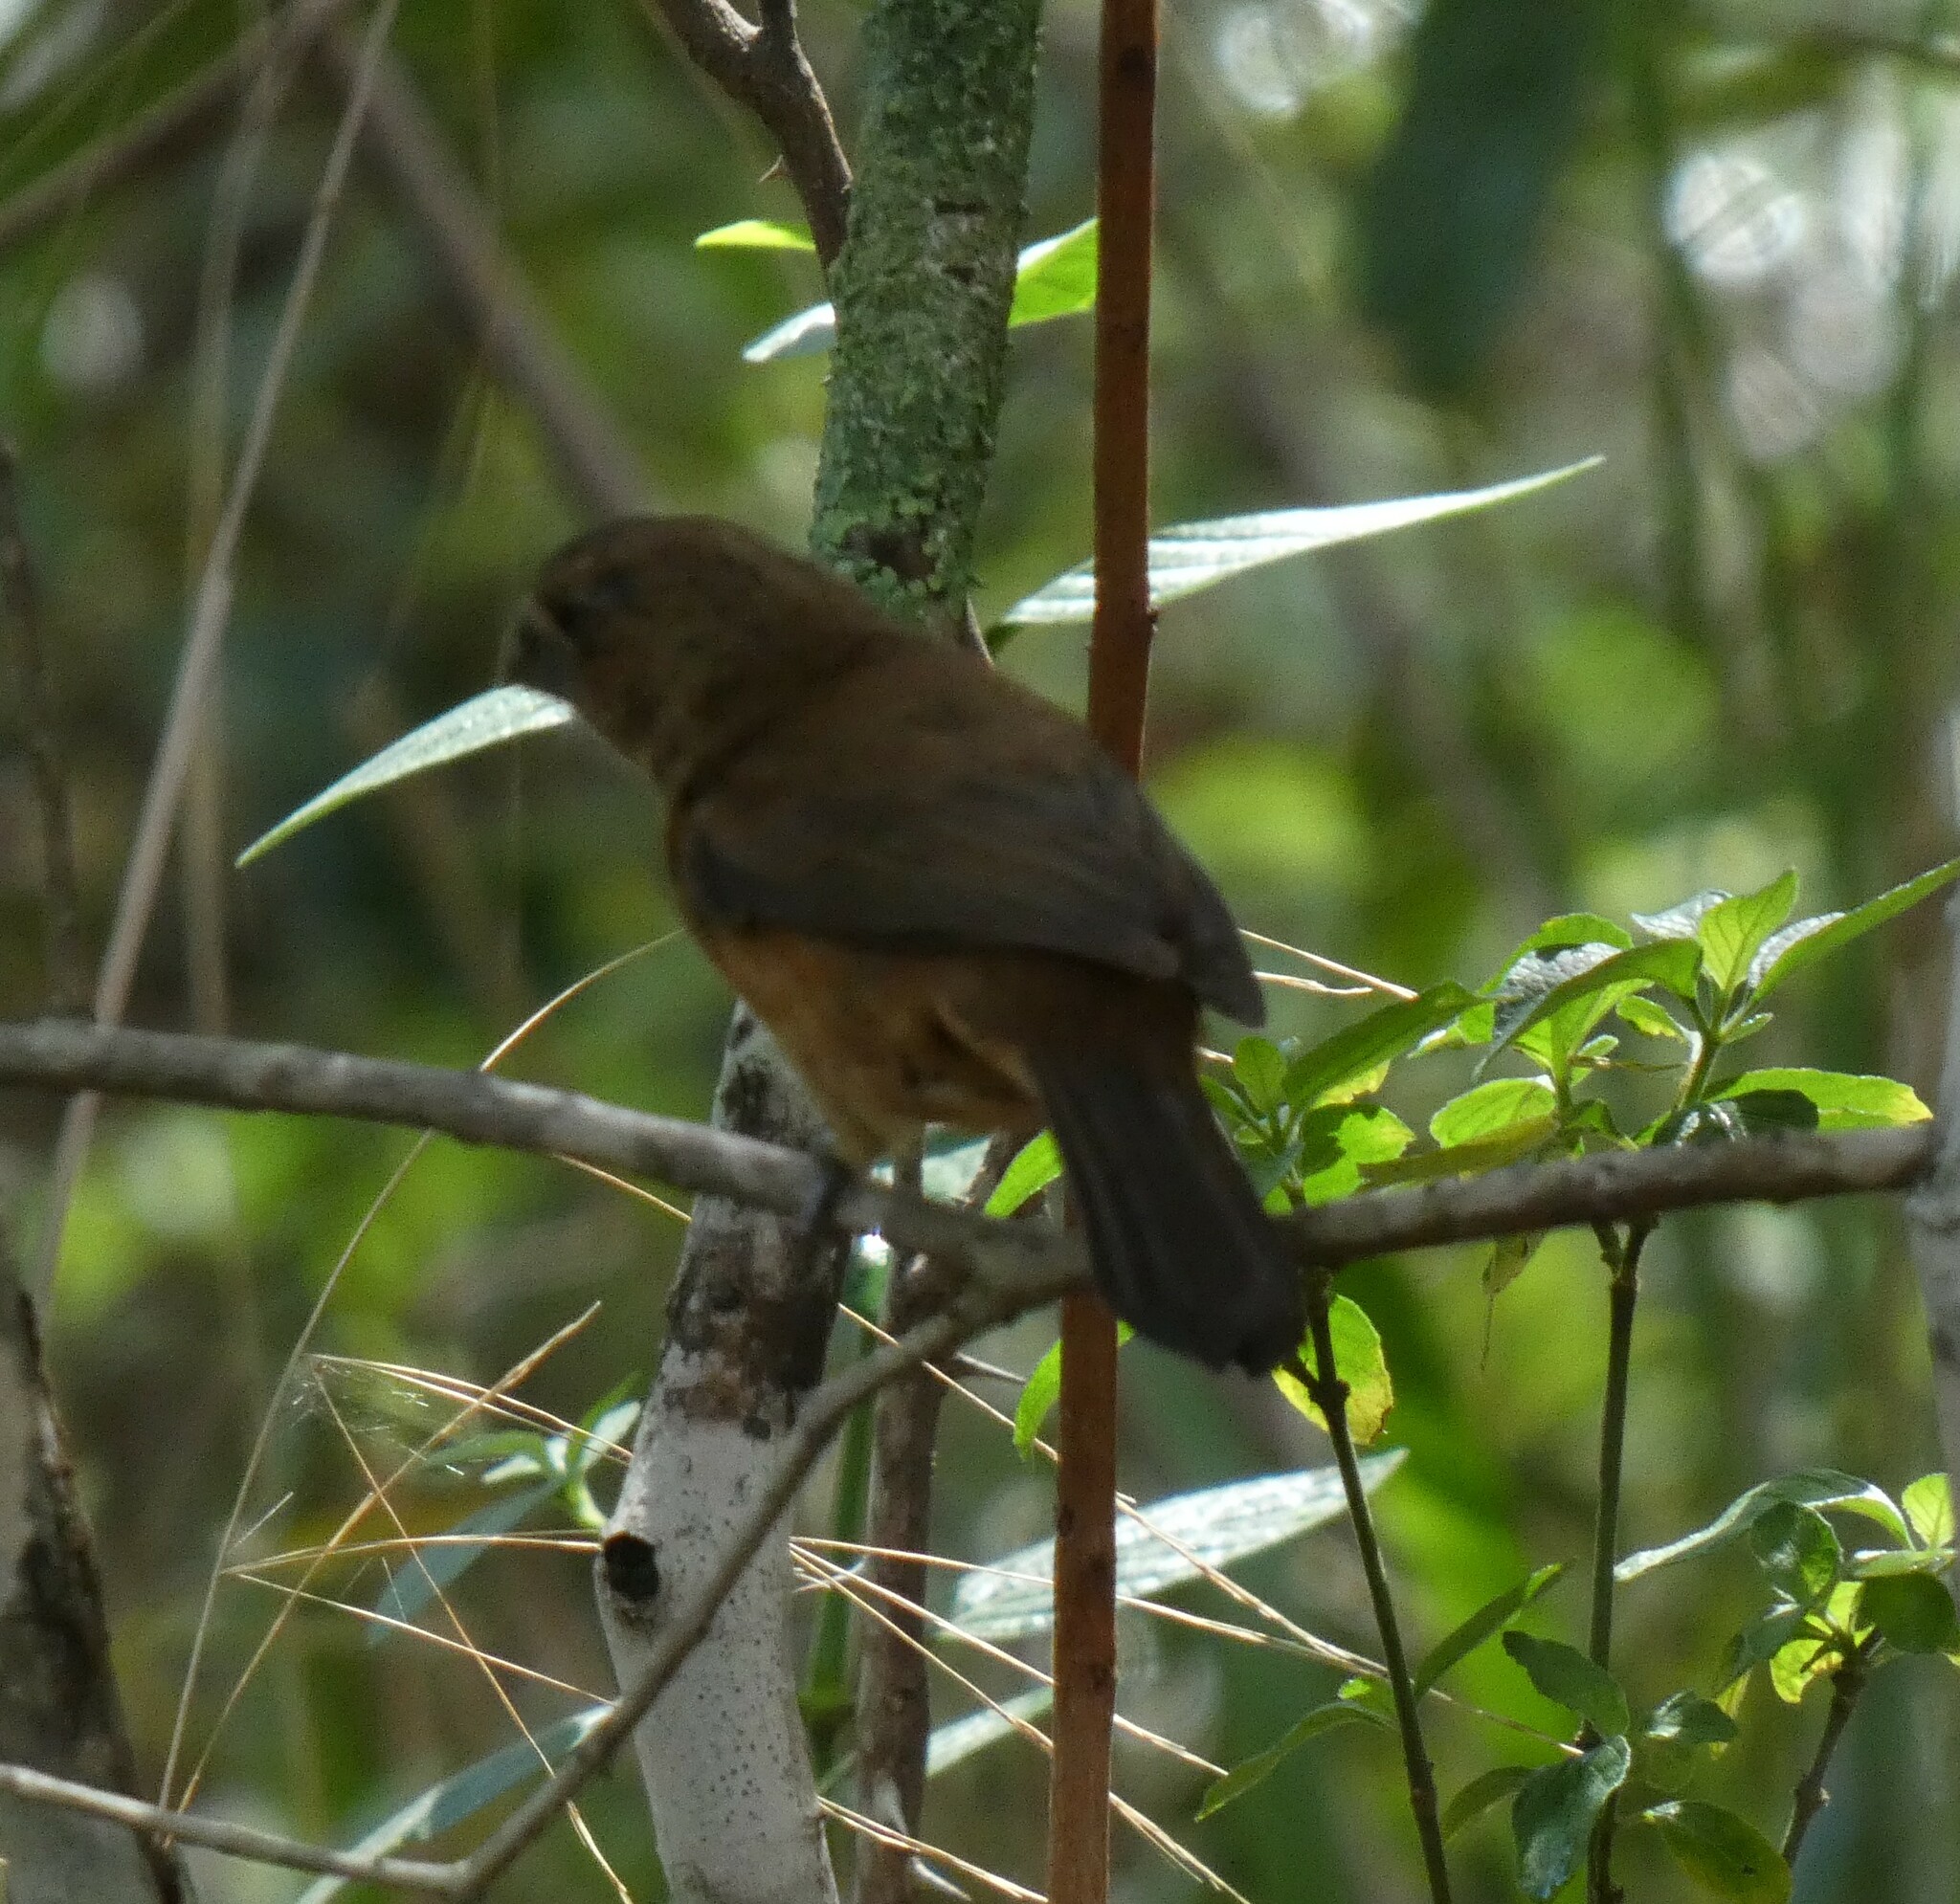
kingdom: Animalia
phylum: Chordata
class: Aves
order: Passeriformes
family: Cardinalidae
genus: Cyanoloxia
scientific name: Cyanoloxia brissonii
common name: Ultramarine grosbeak
